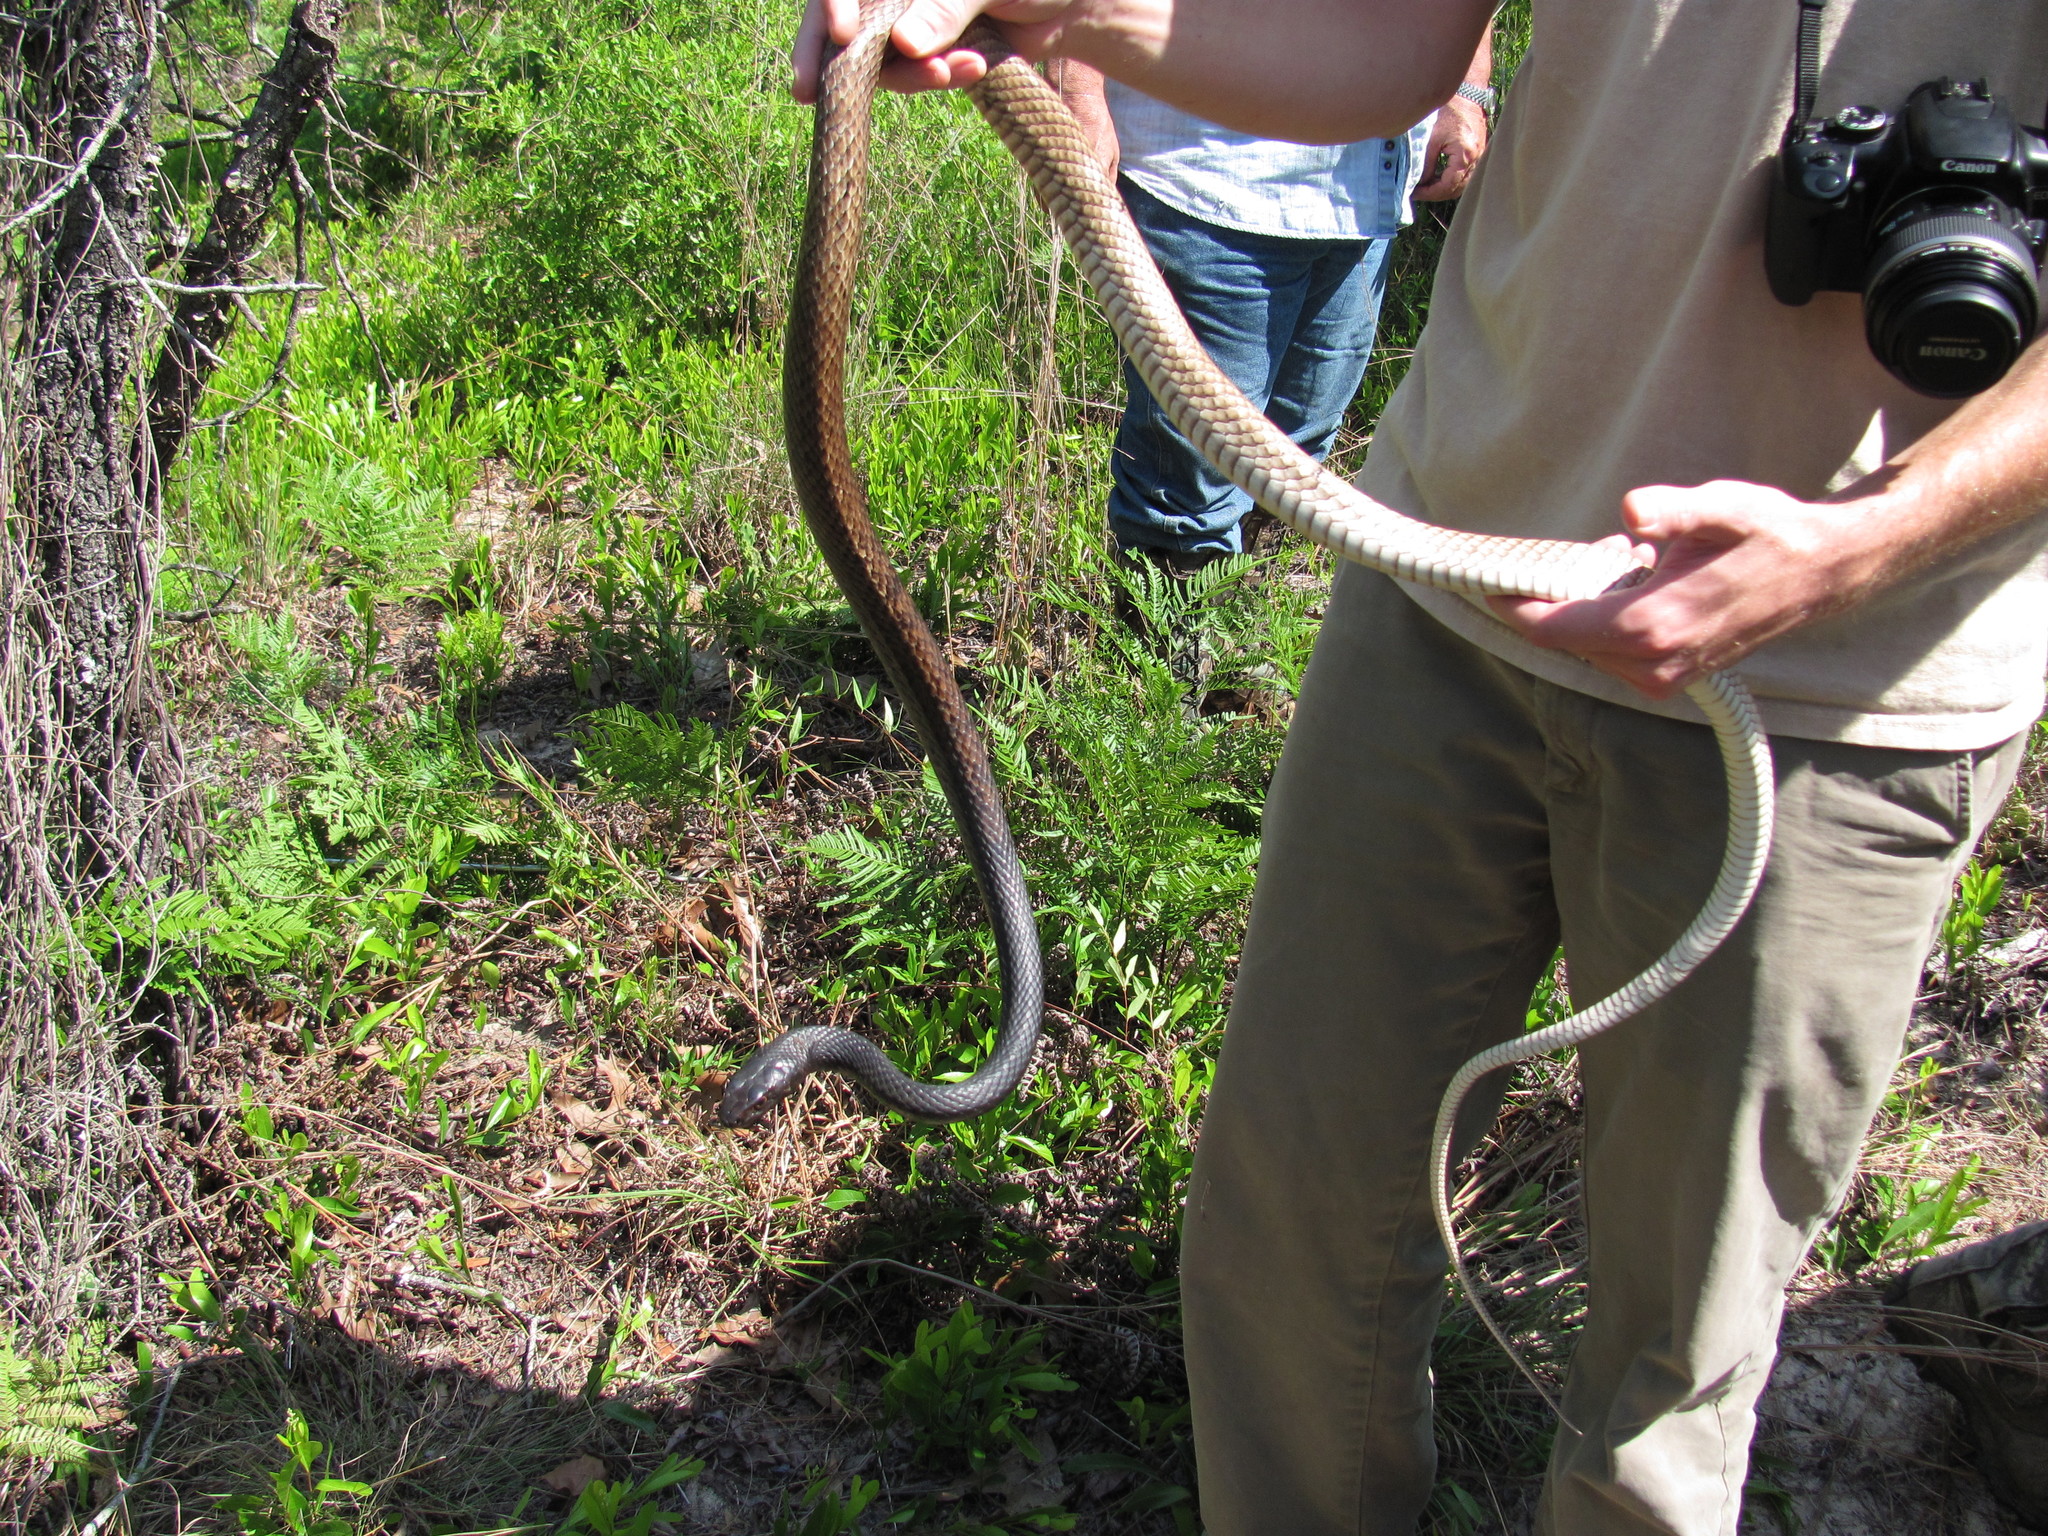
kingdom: Animalia
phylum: Chordata
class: Squamata
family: Colubridae
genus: Masticophis
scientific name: Masticophis flagellum
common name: Coachwhip
